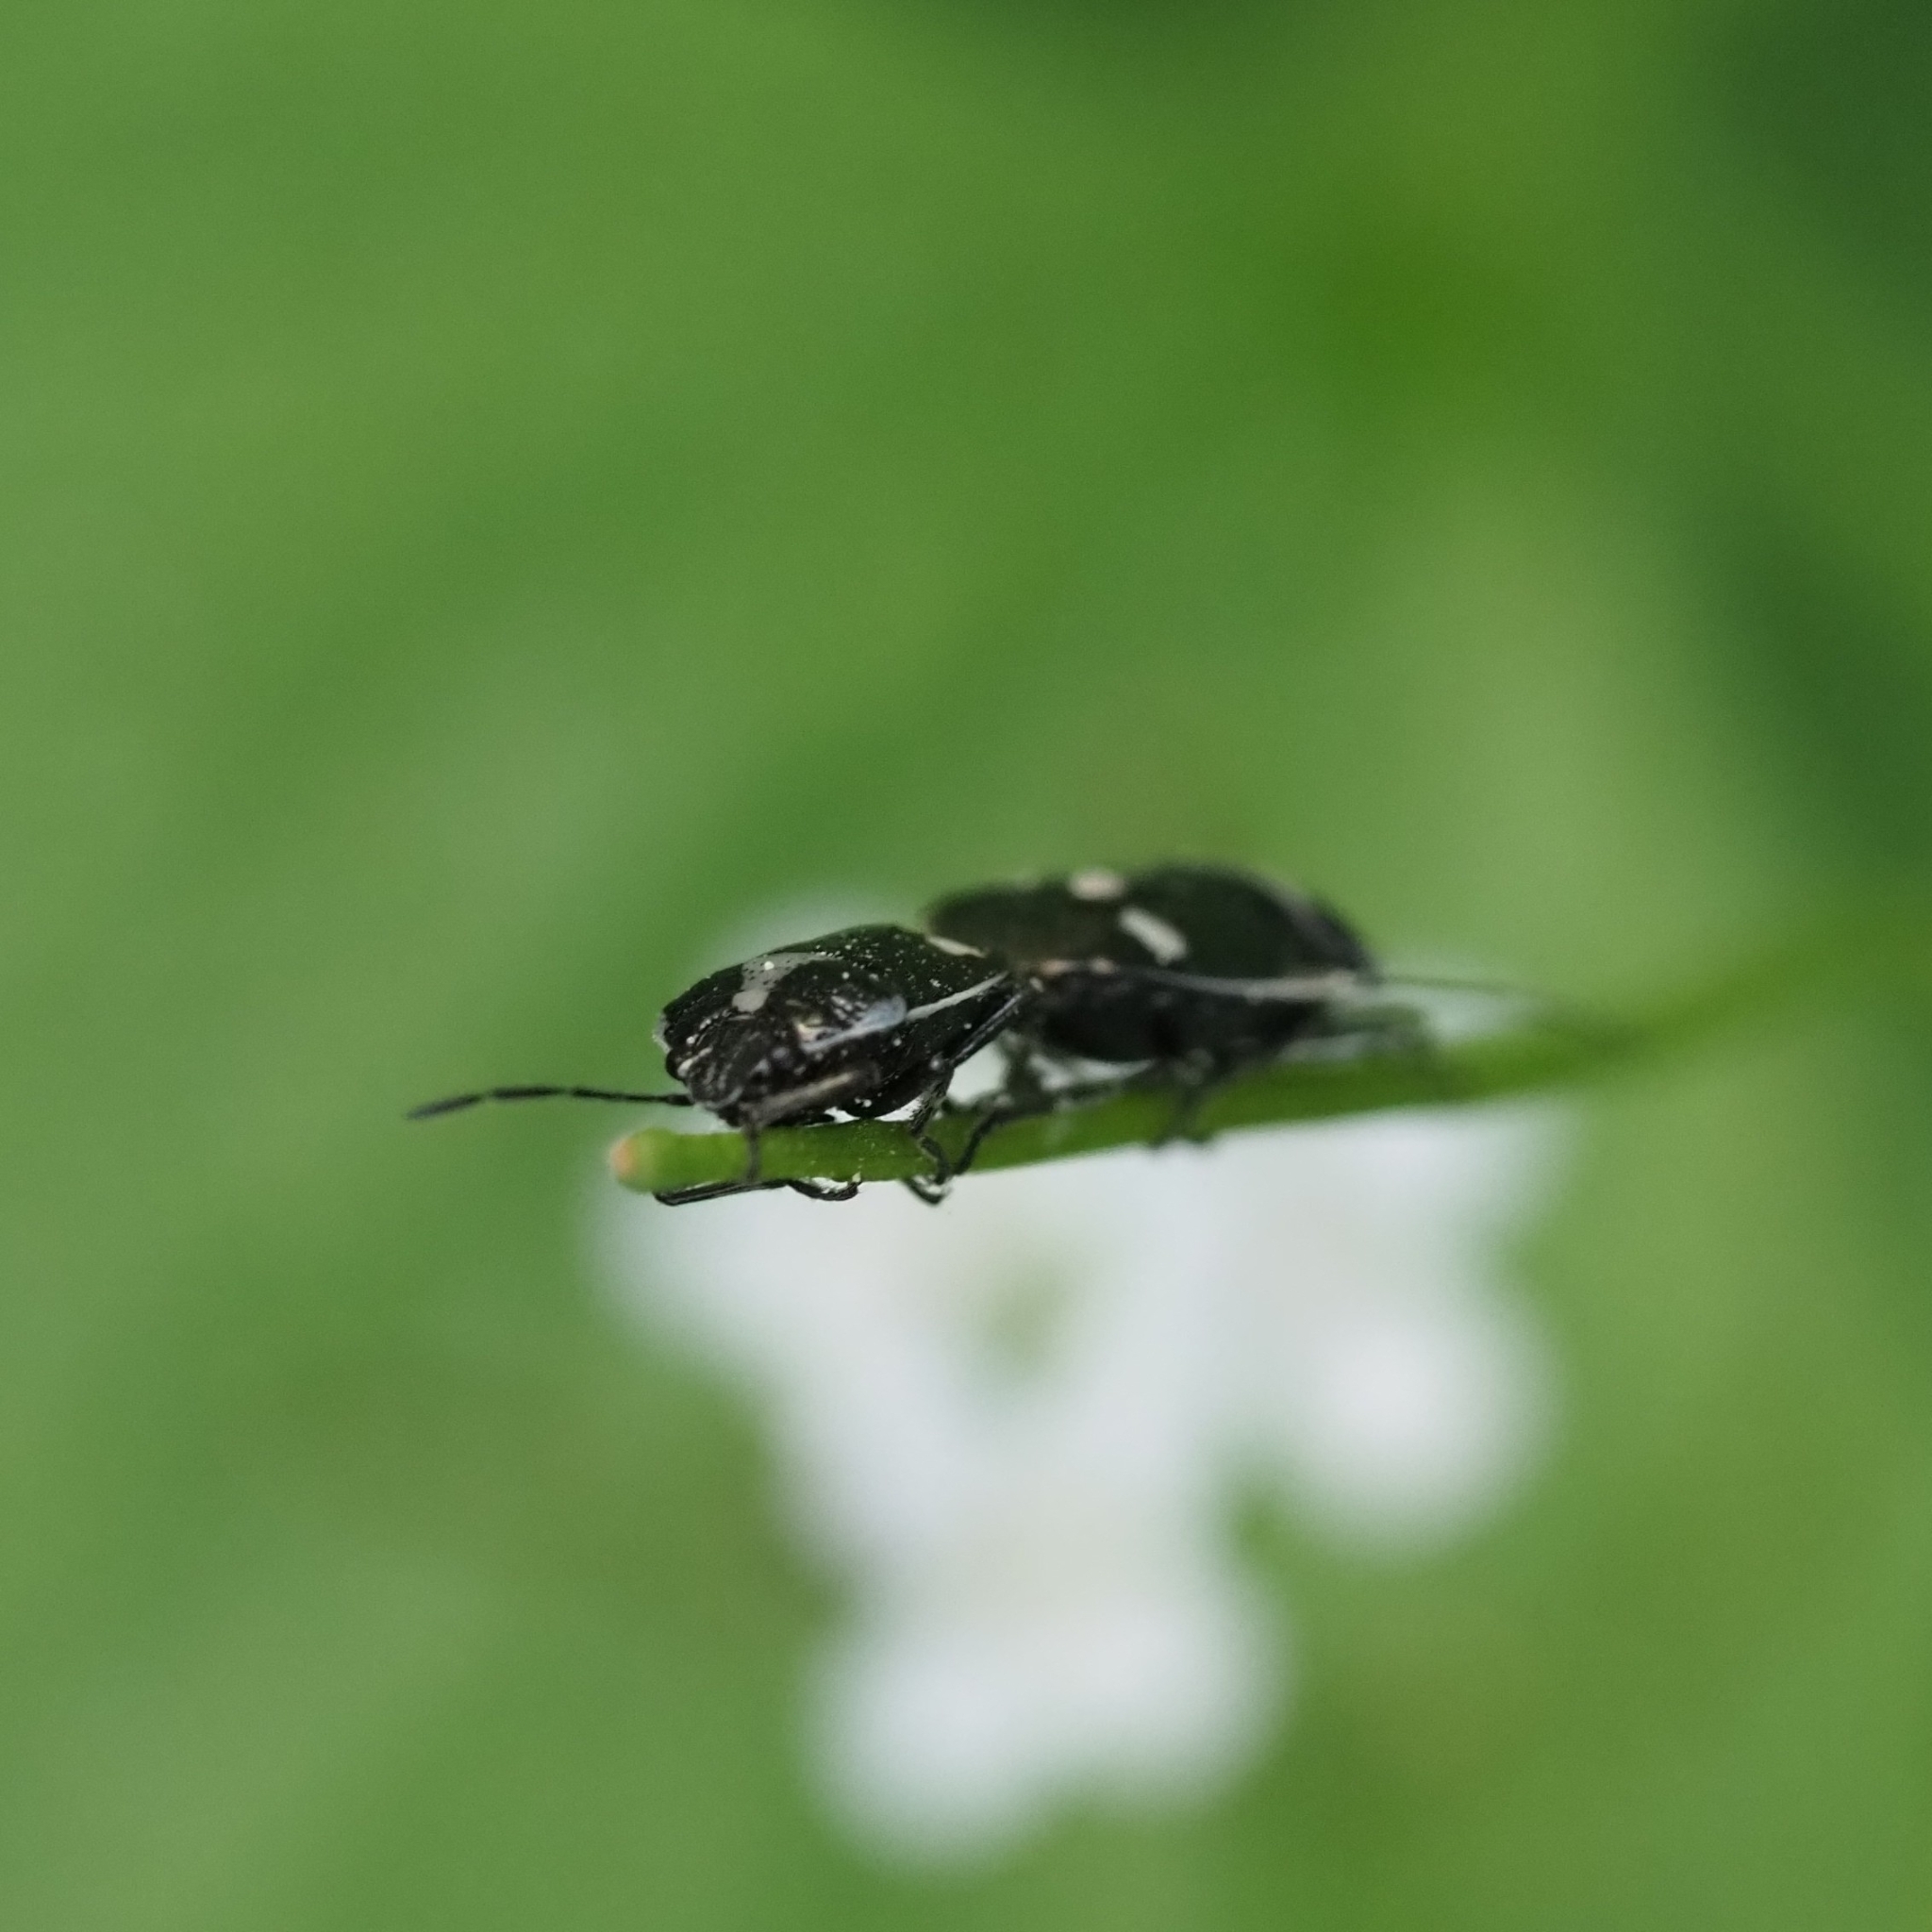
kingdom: Animalia
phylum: Arthropoda
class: Insecta
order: Hemiptera
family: Pentatomidae
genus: Eurydema
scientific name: Eurydema oleracea
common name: Cabbage bug
